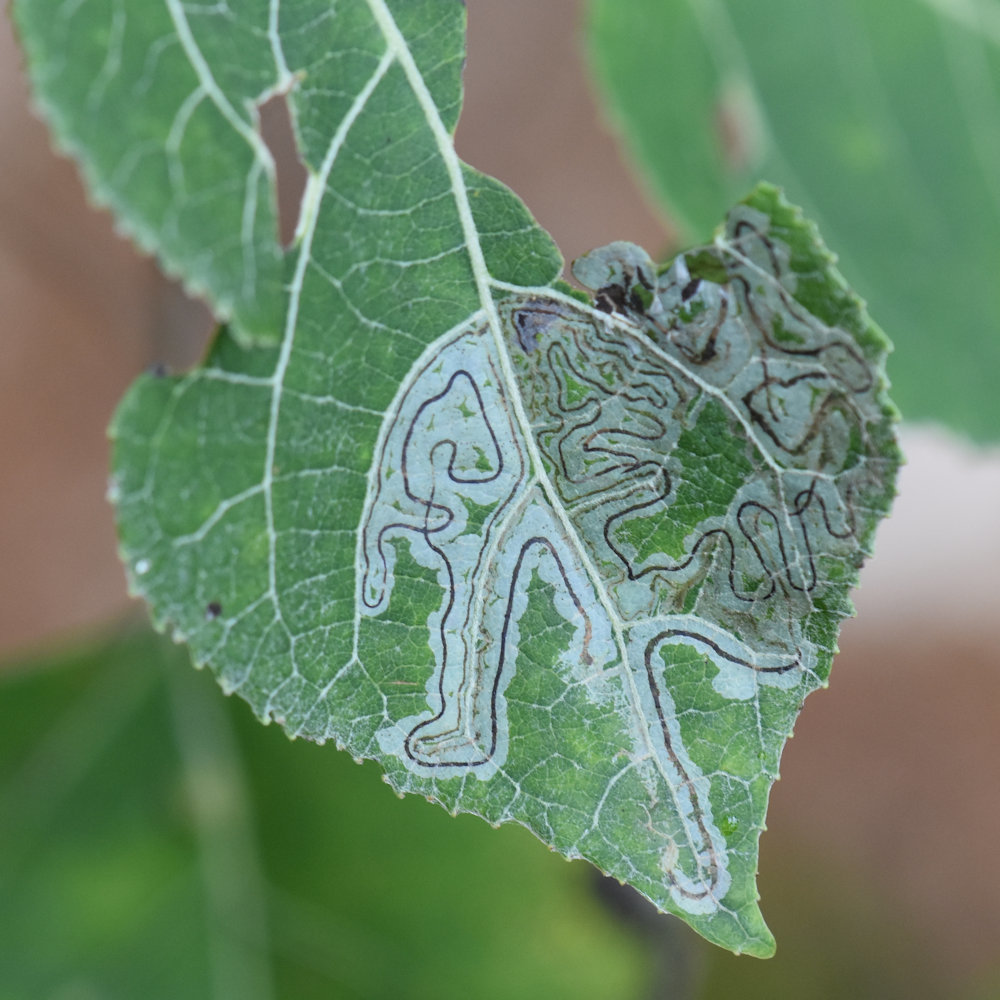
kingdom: Animalia
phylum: Arthropoda
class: Insecta
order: Lepidoptera
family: Gracillariidae
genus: Phyllocnistis
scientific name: Phyllocnistis populiella
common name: Aspen serpentine leafminer moth
